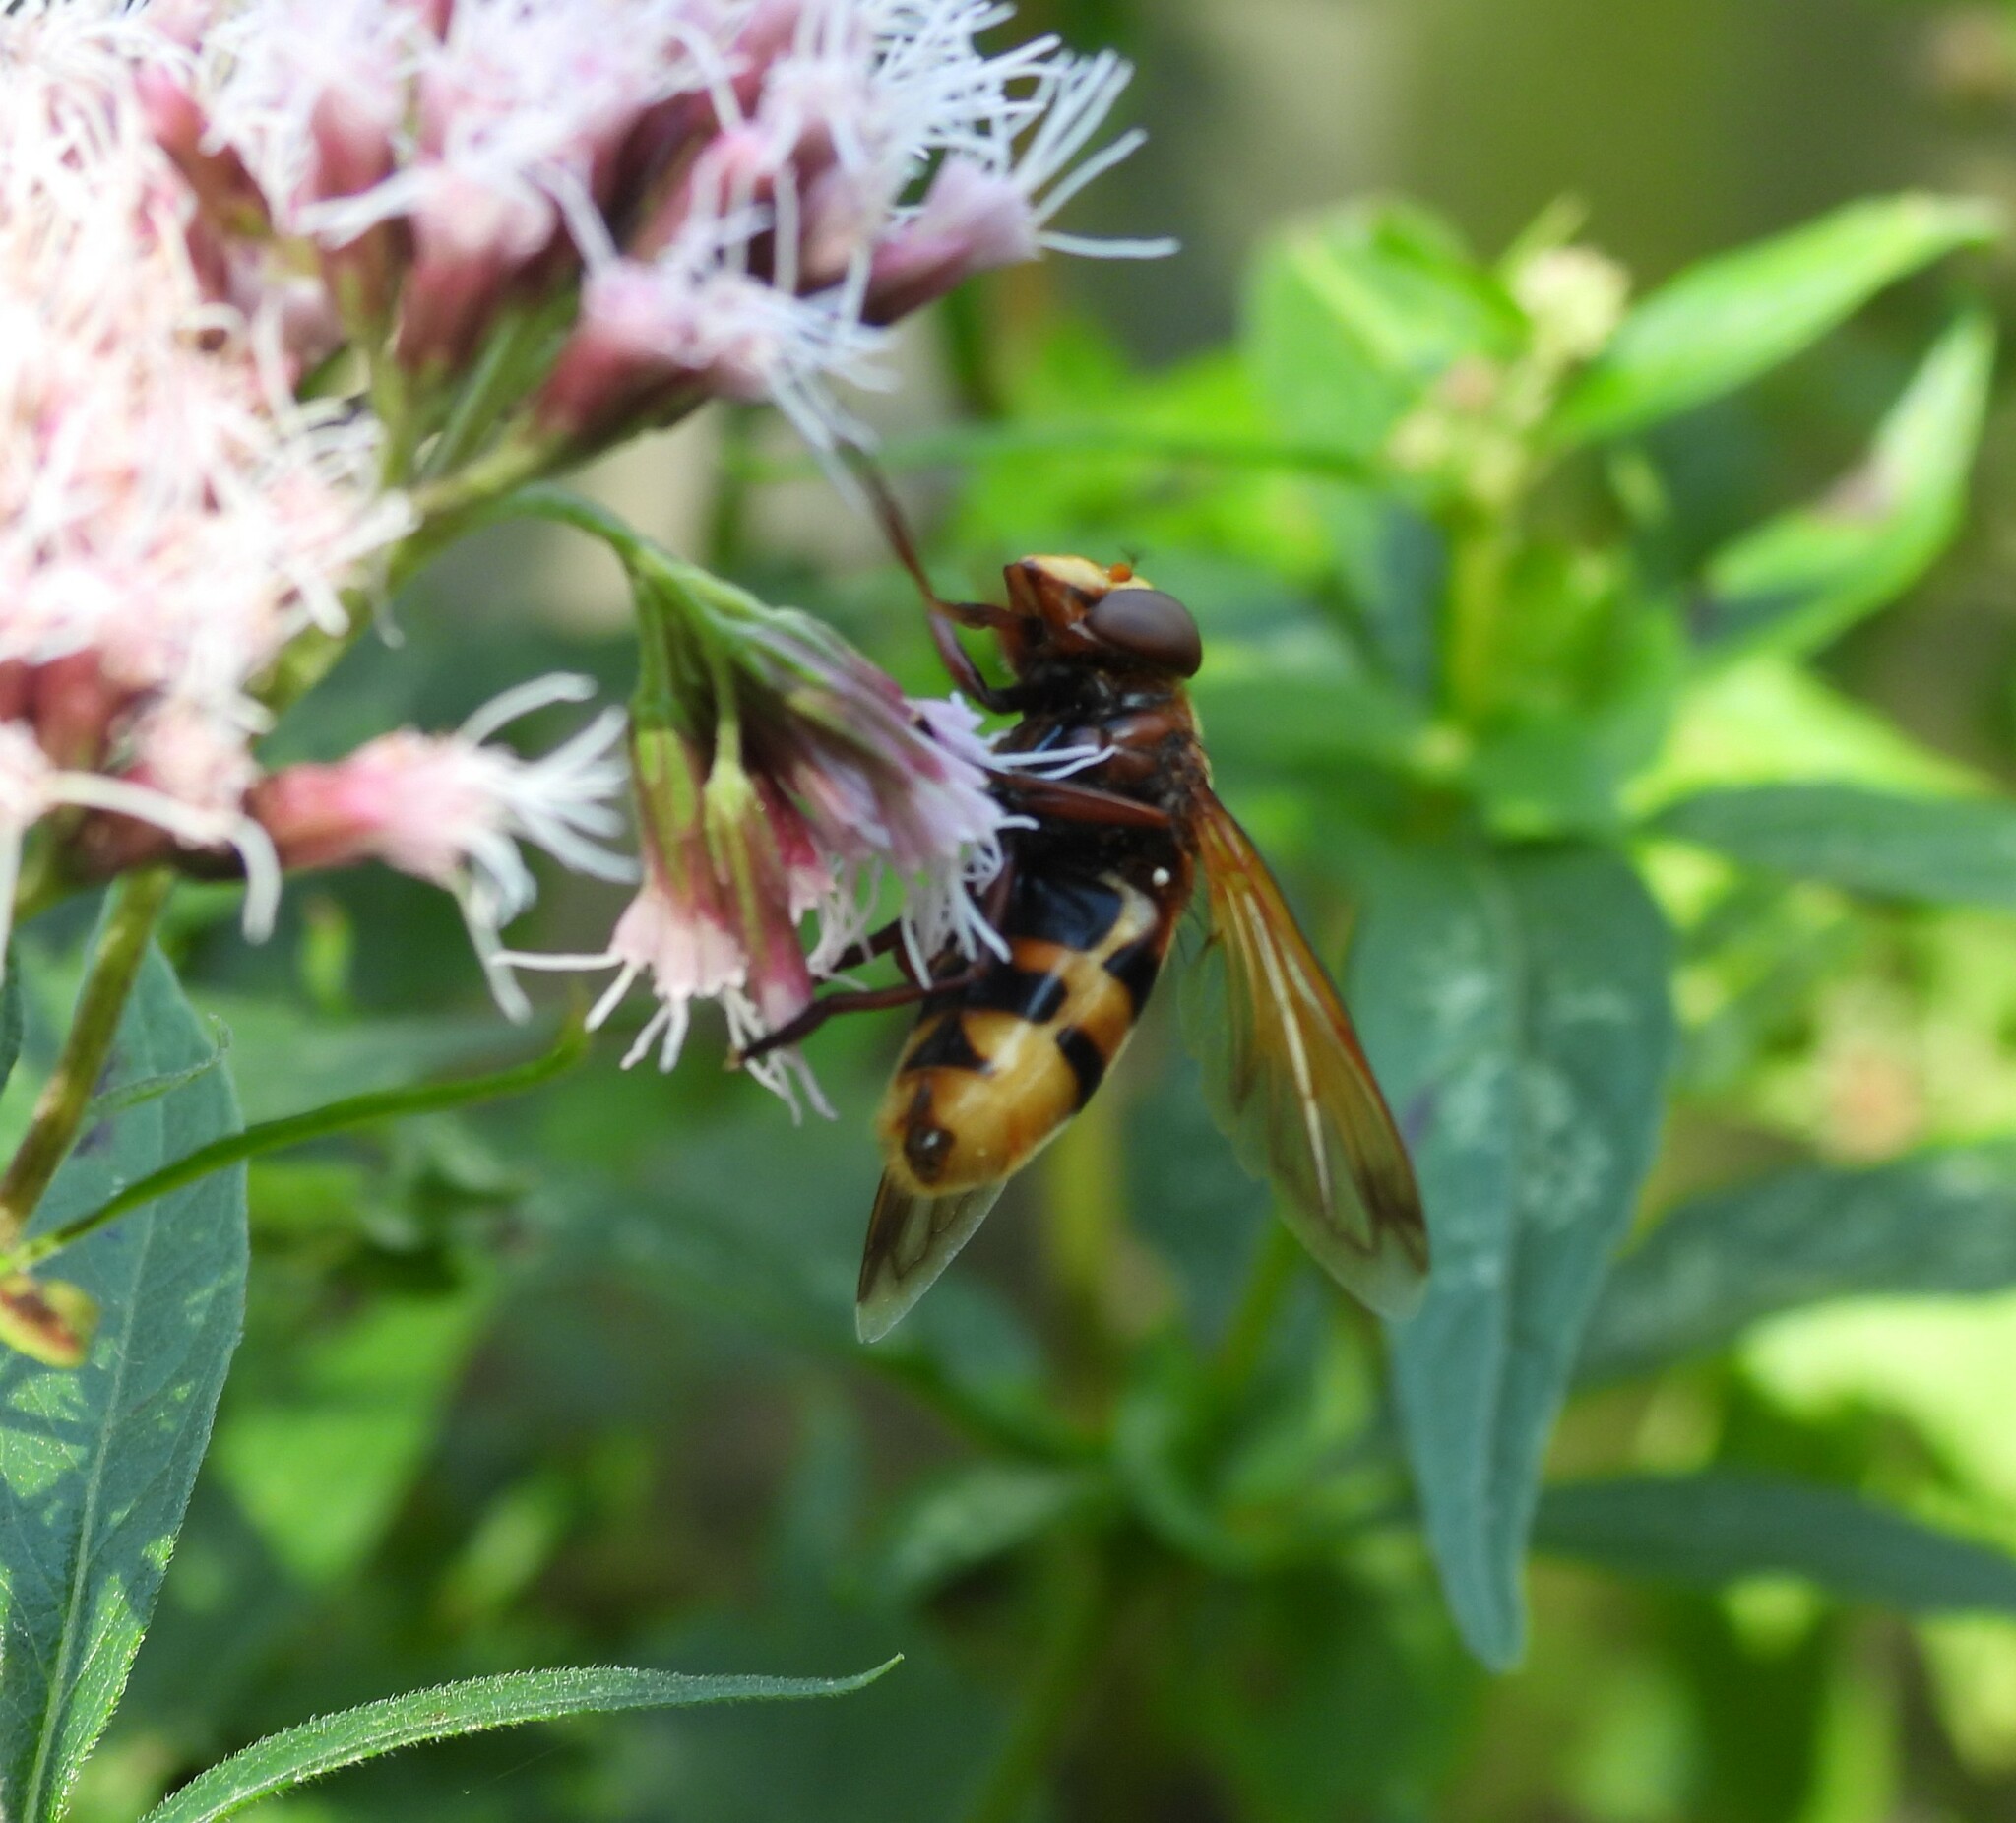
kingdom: Animalia
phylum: Arthropoda
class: Insecta
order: Diptera
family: Syrphidae
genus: Volucella
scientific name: Volucella zonaria
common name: Hornet hoverfly
